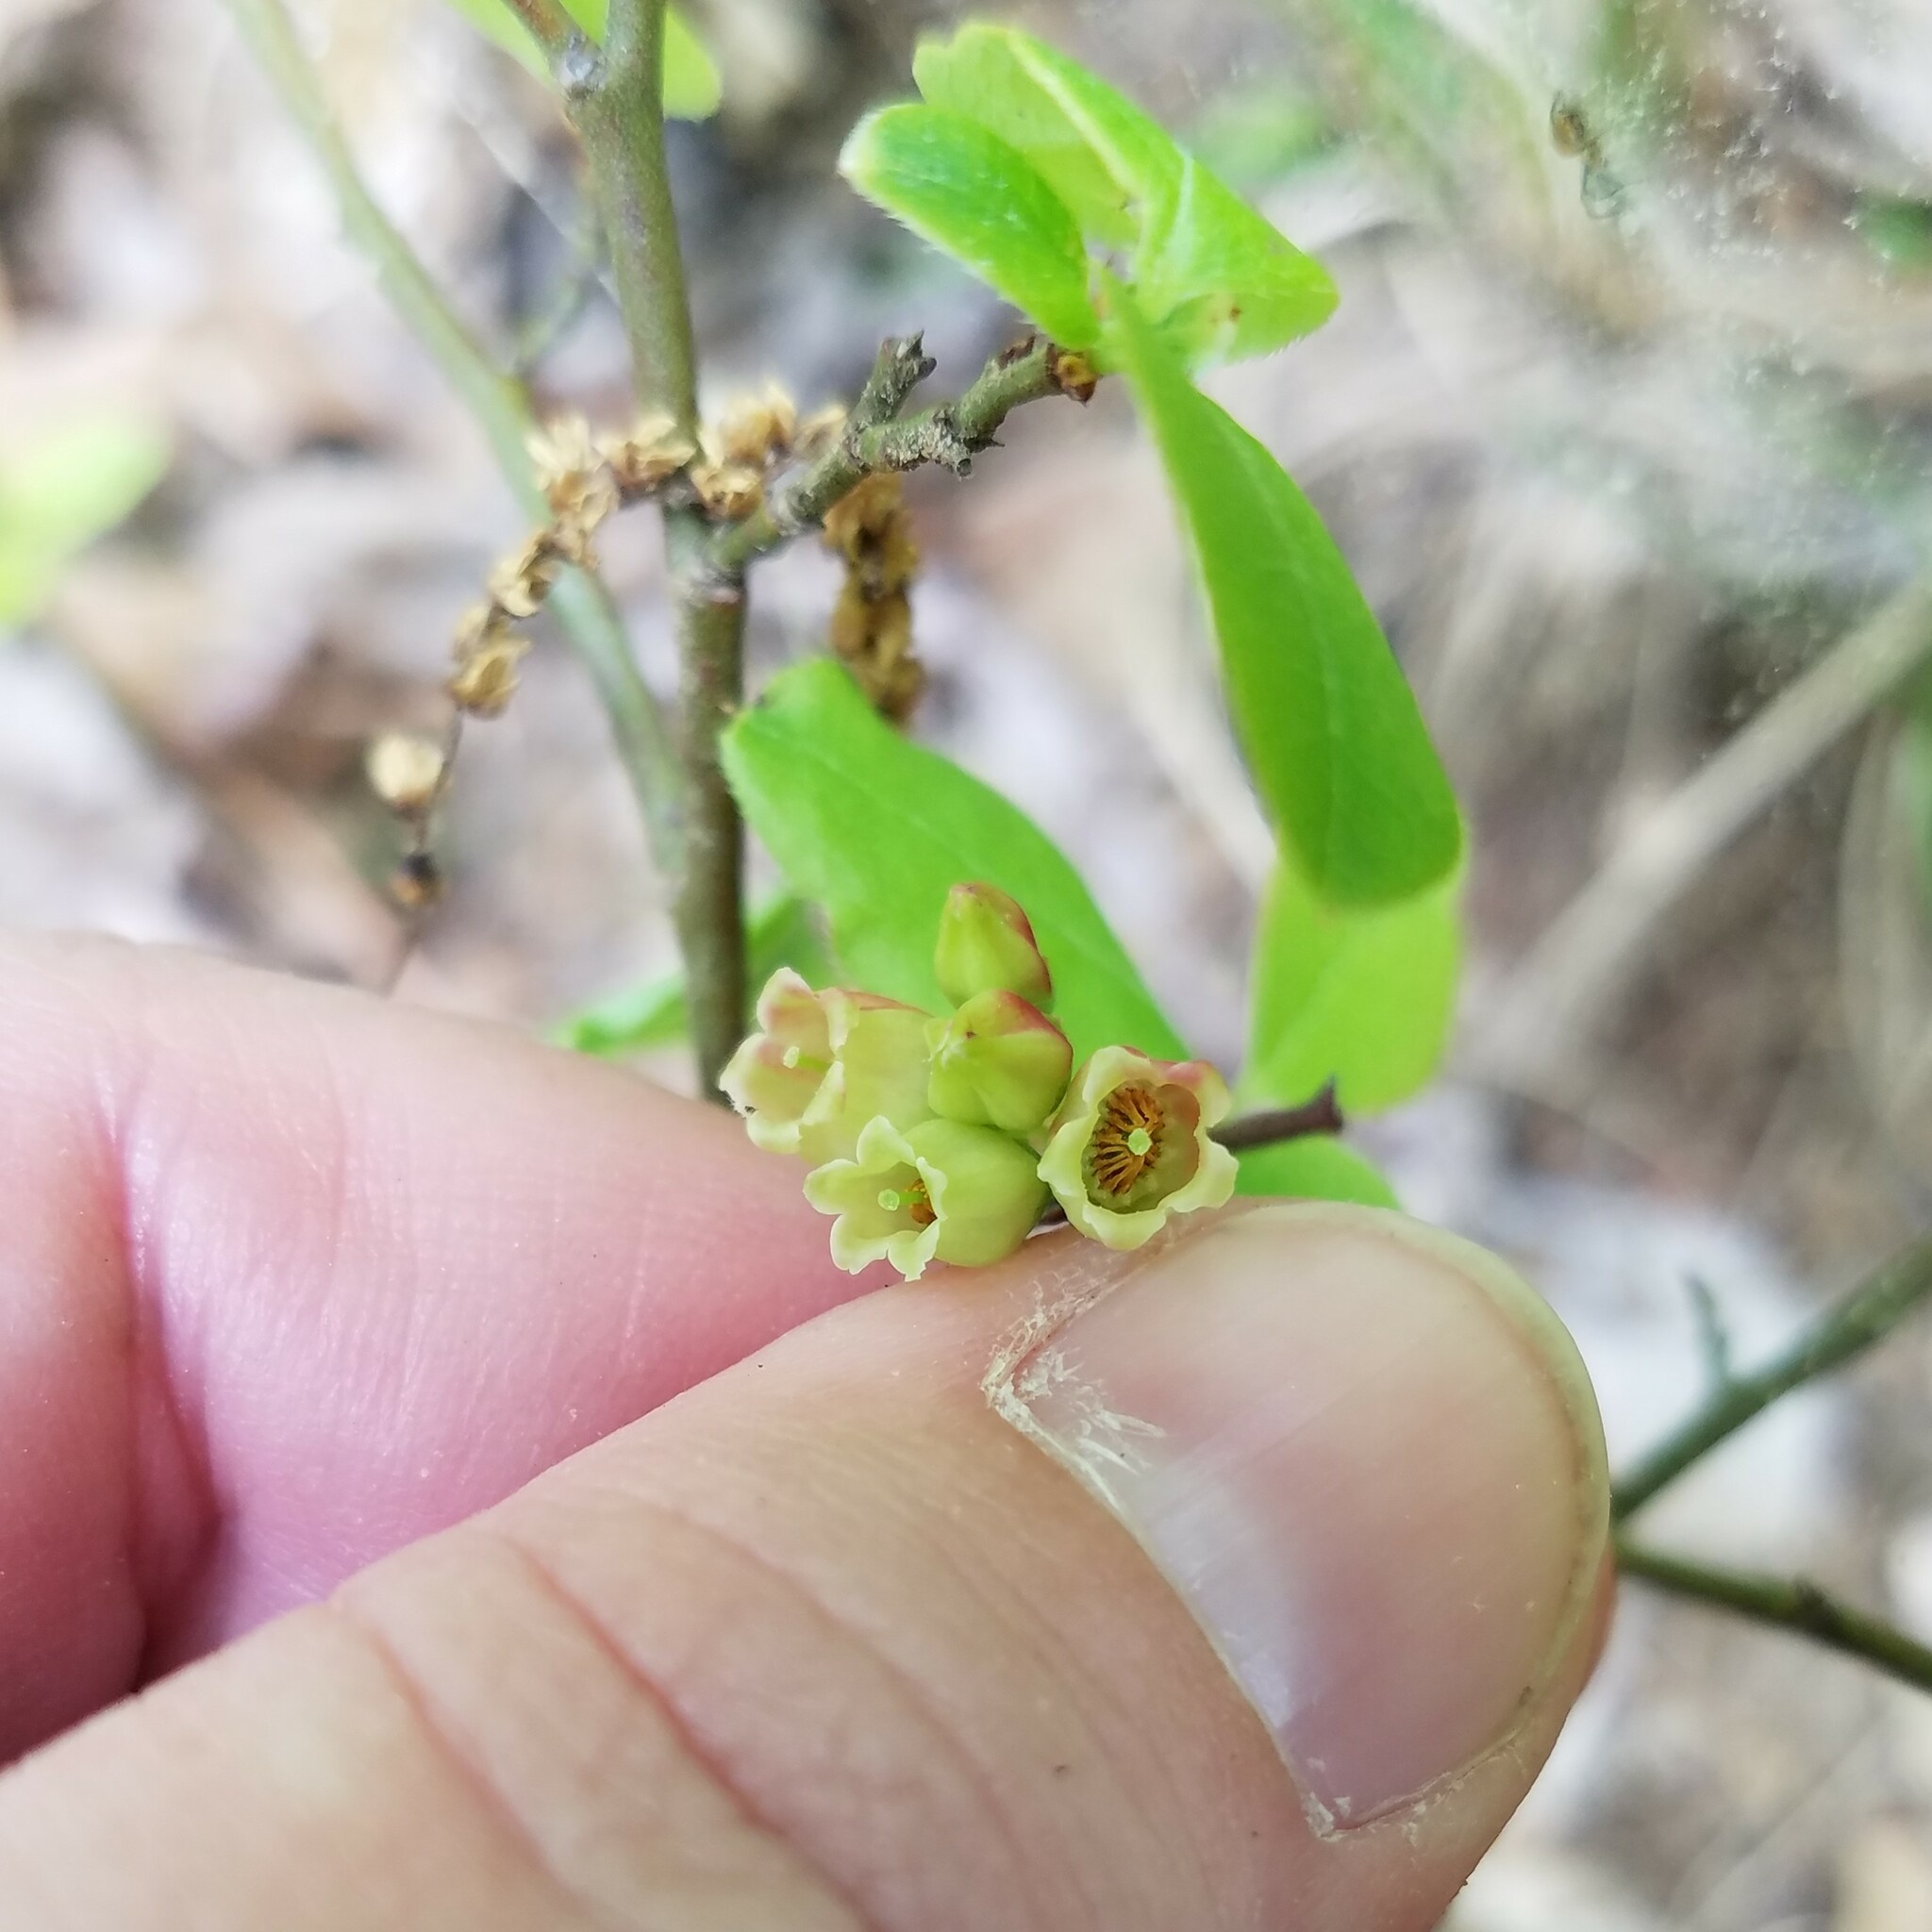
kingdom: Plantae
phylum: Tracheophyta
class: Magnoliopsida
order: Ericales
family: Ericaceae
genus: Vaccinium
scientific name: Vaccinium pallidum
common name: Blue ridge blueberry
